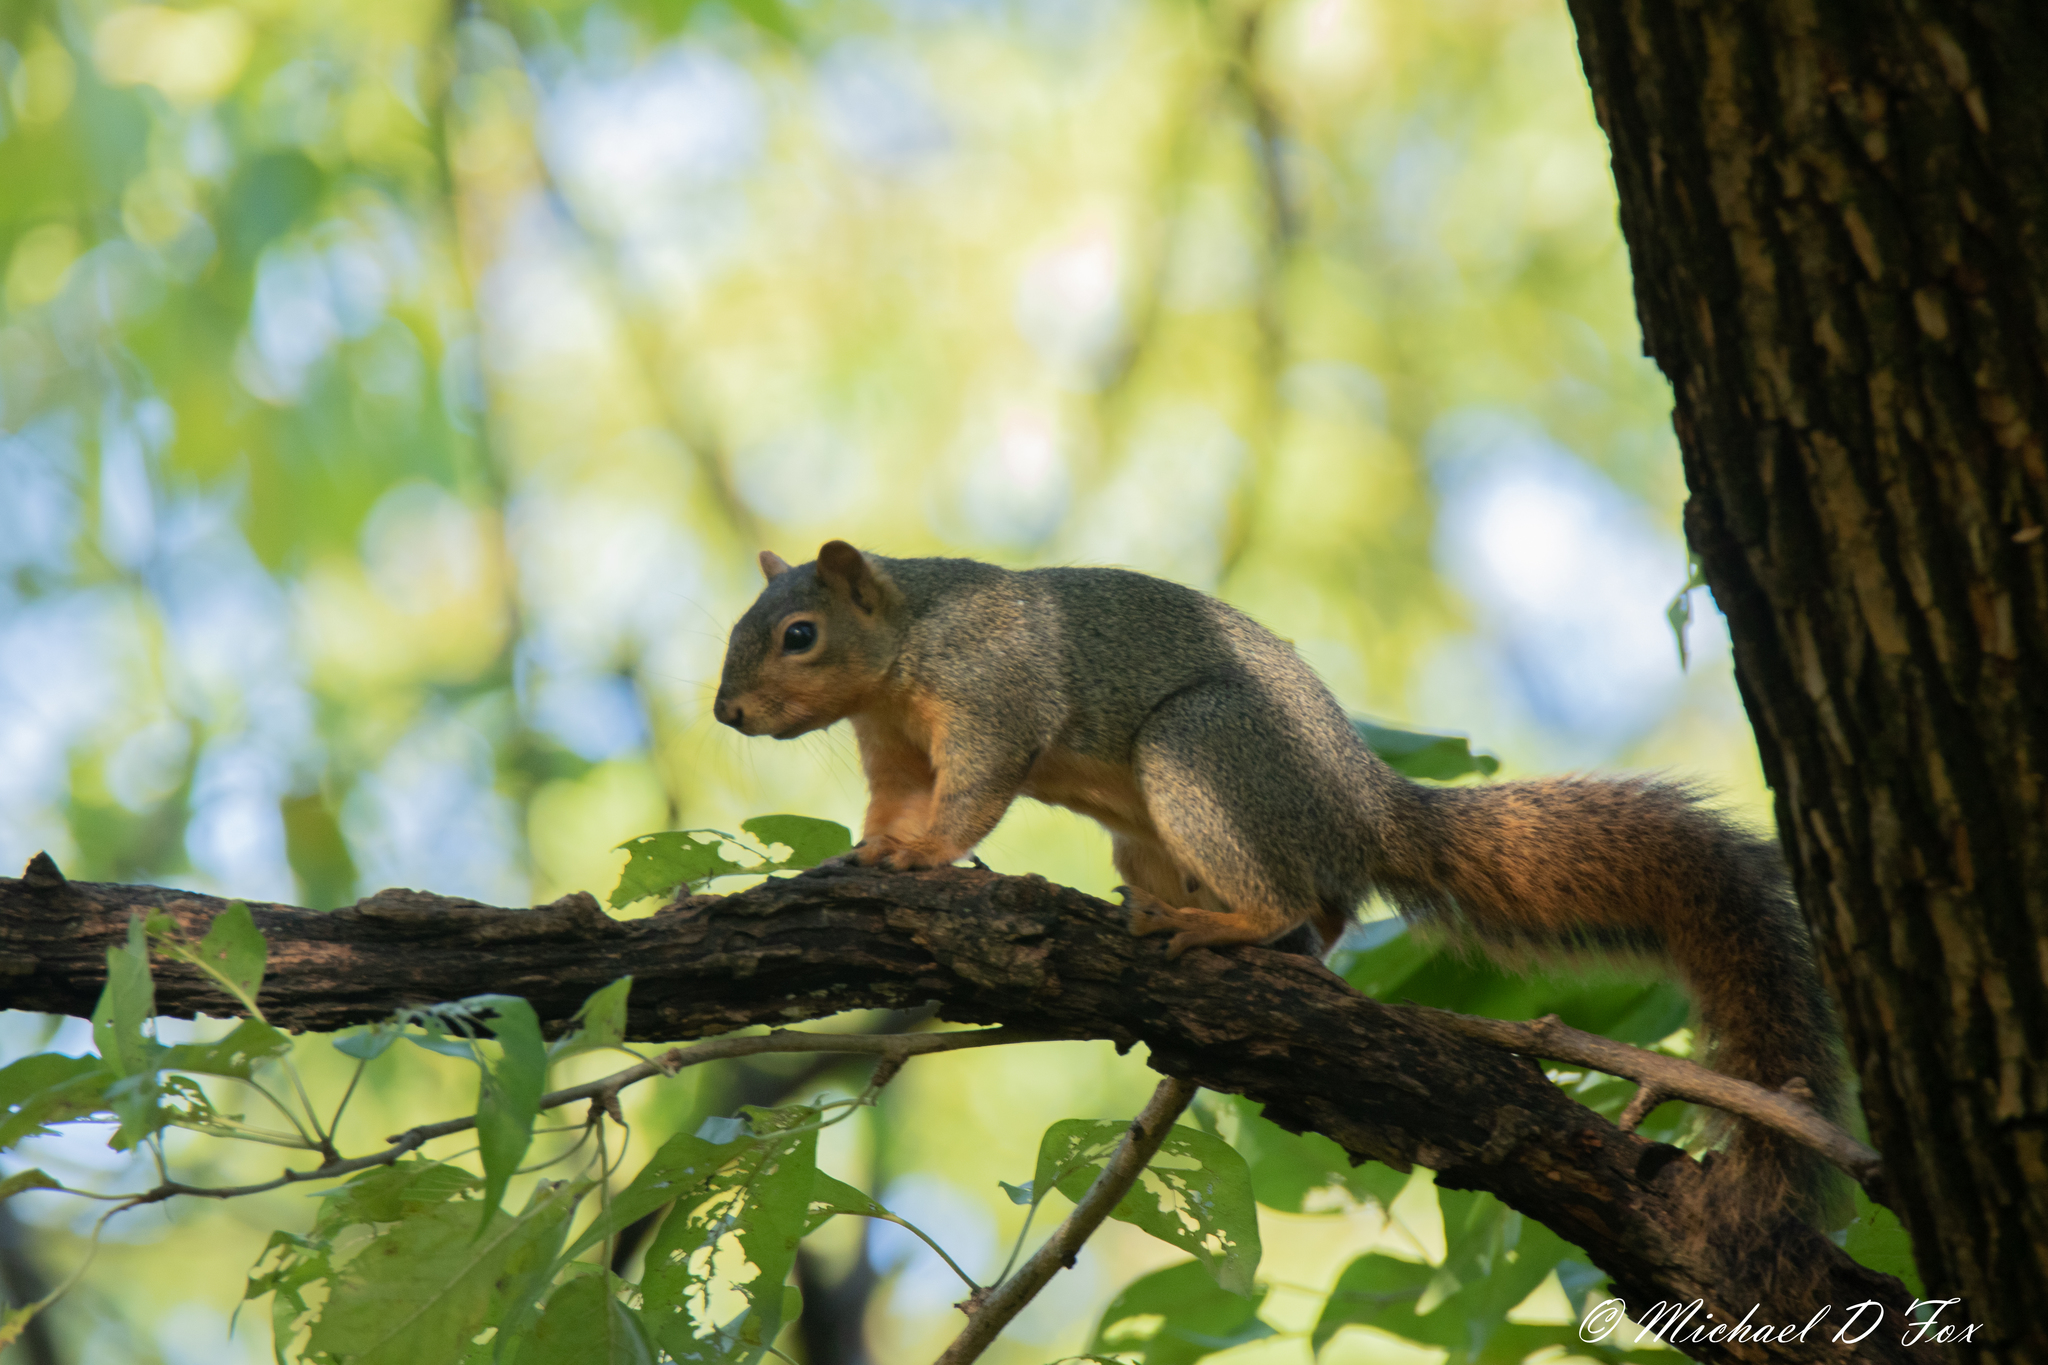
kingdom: Animalia
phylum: Chordata
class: Mammalia
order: Rodentia
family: Sciuridae
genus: Sciurus
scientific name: Sciurus niger
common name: Fox squirrel
